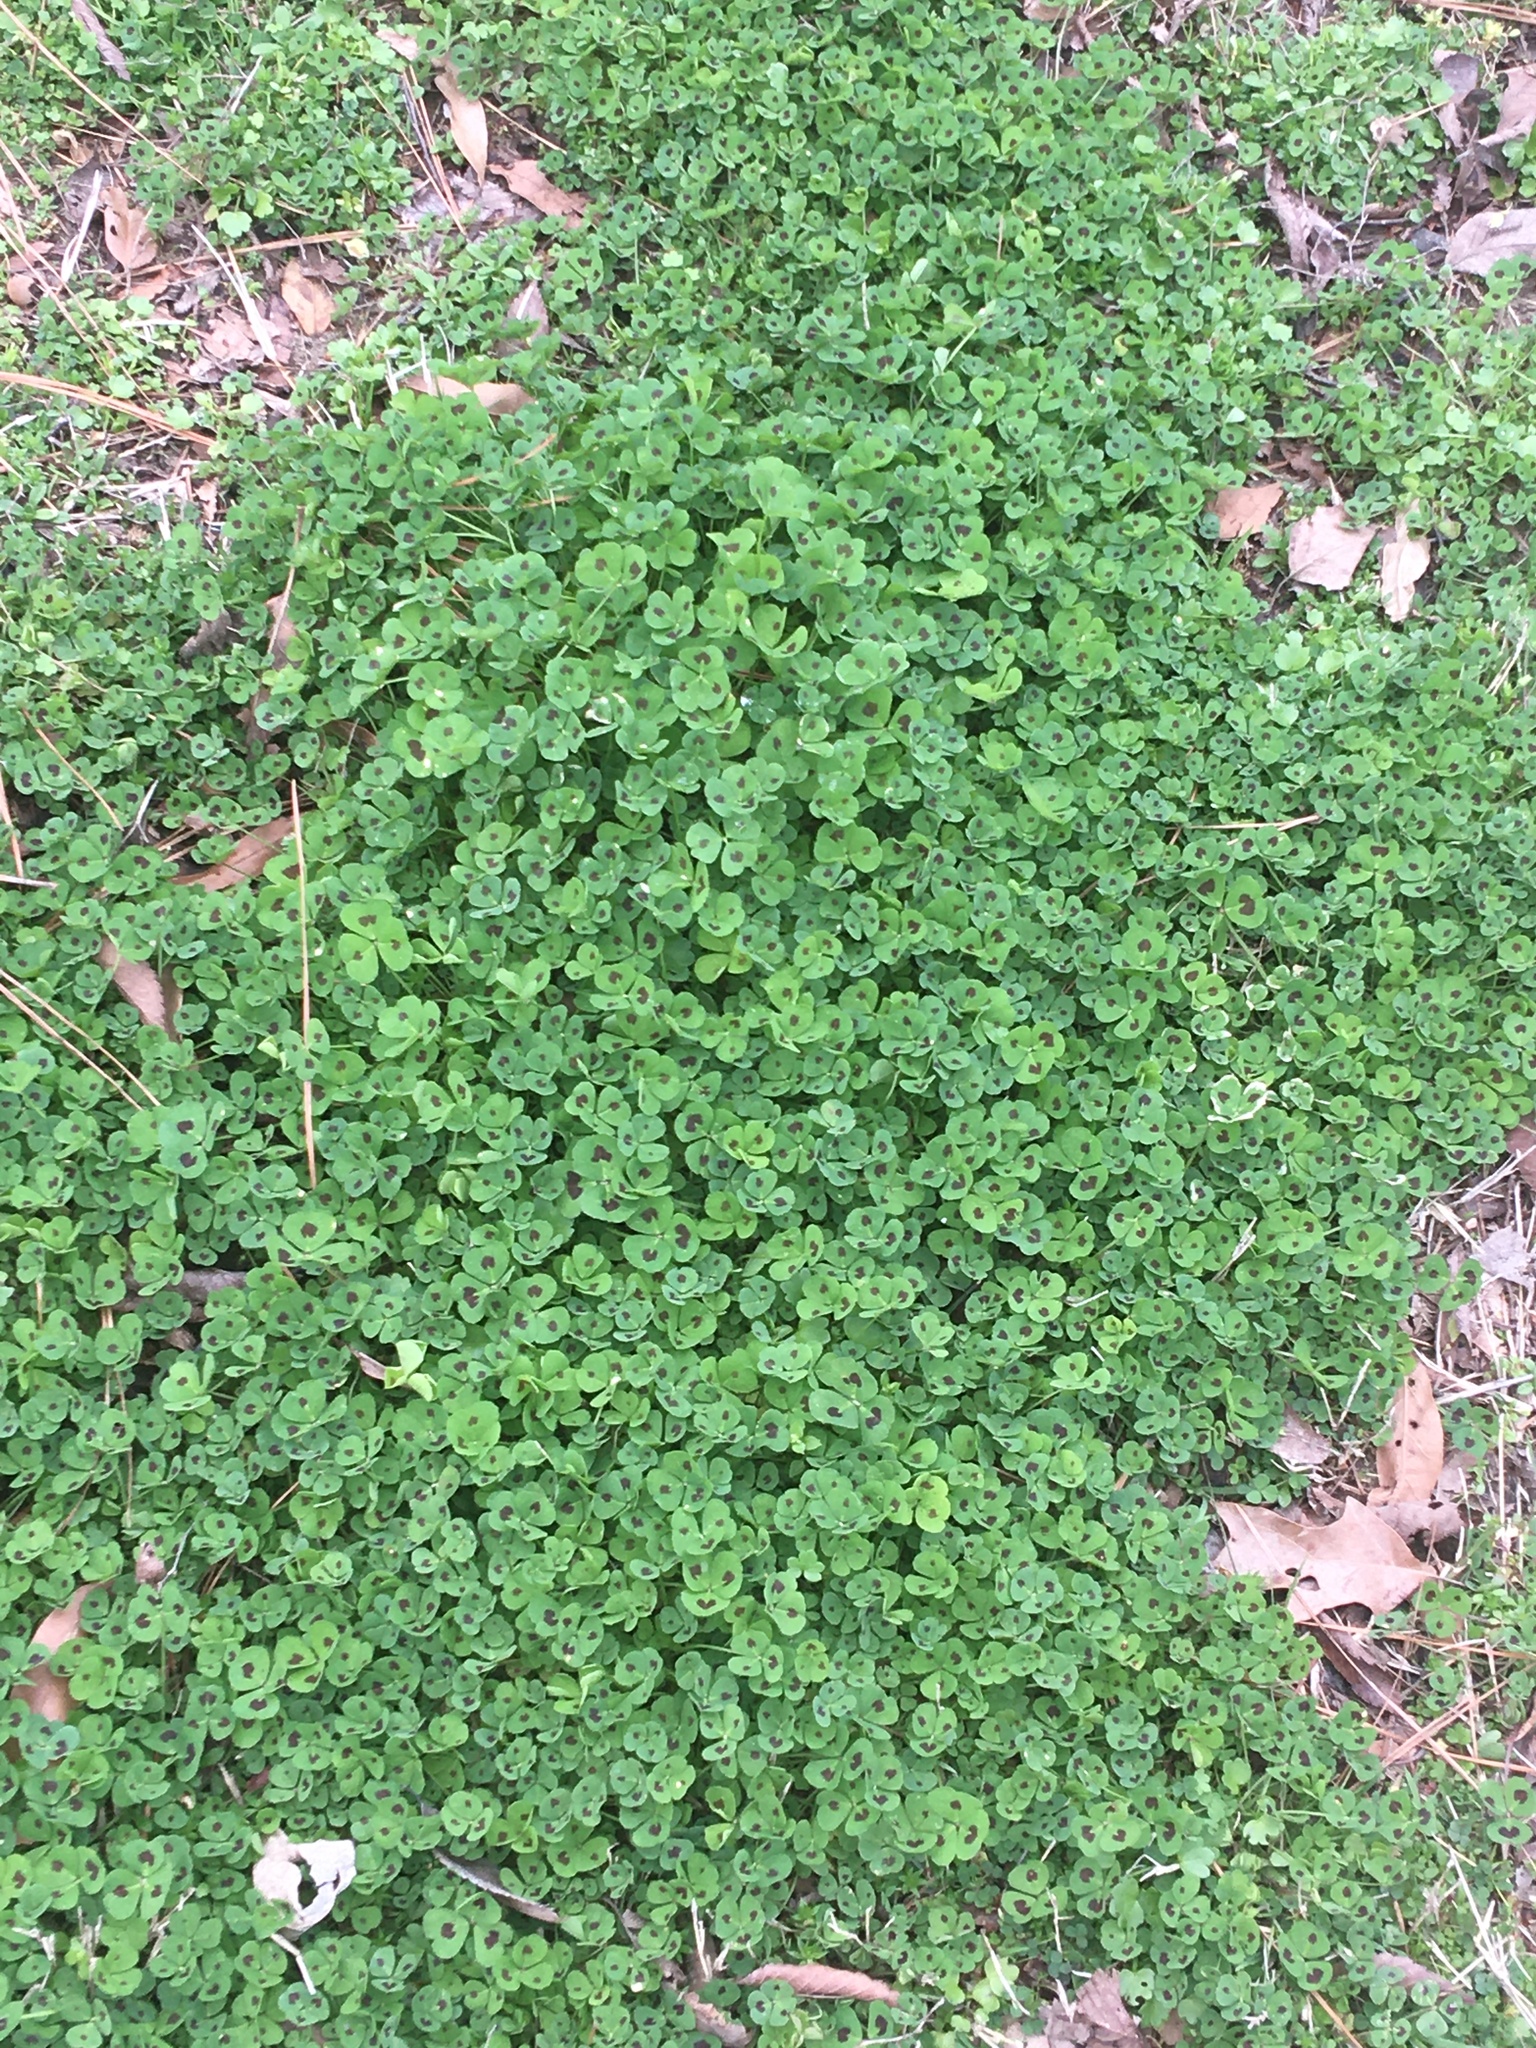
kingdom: Plantae
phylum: Tracheophyta
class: Magnoliopsida
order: Fabales
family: Fabaceae
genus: Medicago
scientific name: Medicago arabica
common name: Spotted medick
